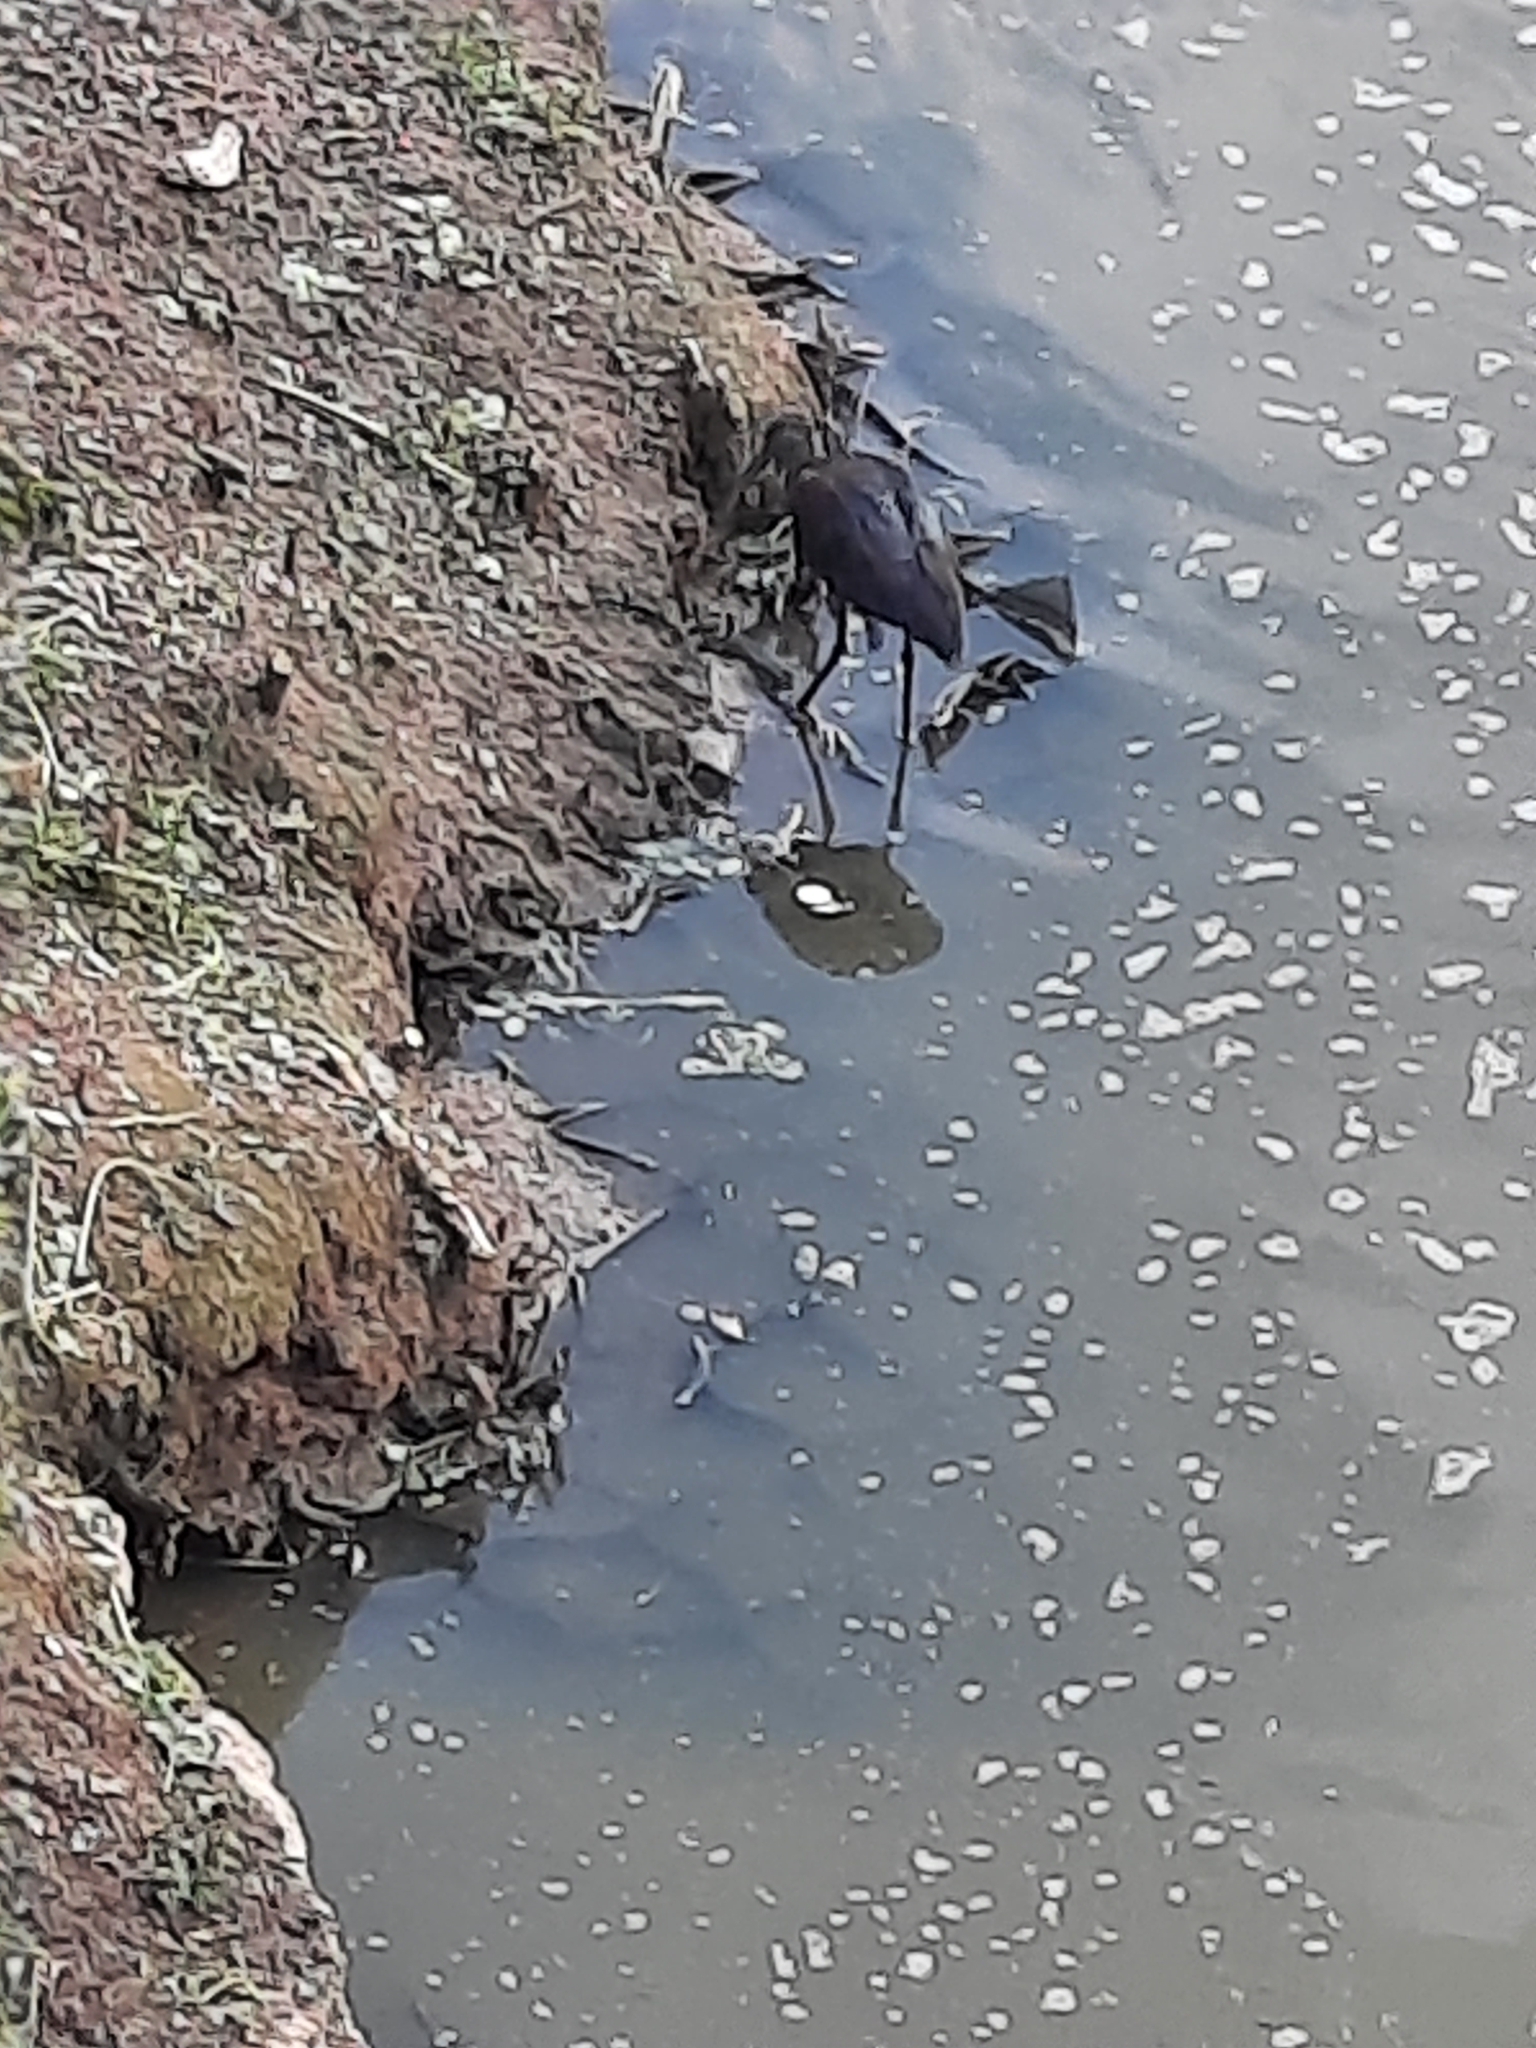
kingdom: Animalia
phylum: Chordata
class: Aves
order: Pelecaniformes
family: Threskiornithidae
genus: Plegadis
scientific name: Plegadis chihi
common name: White-faced ibis
